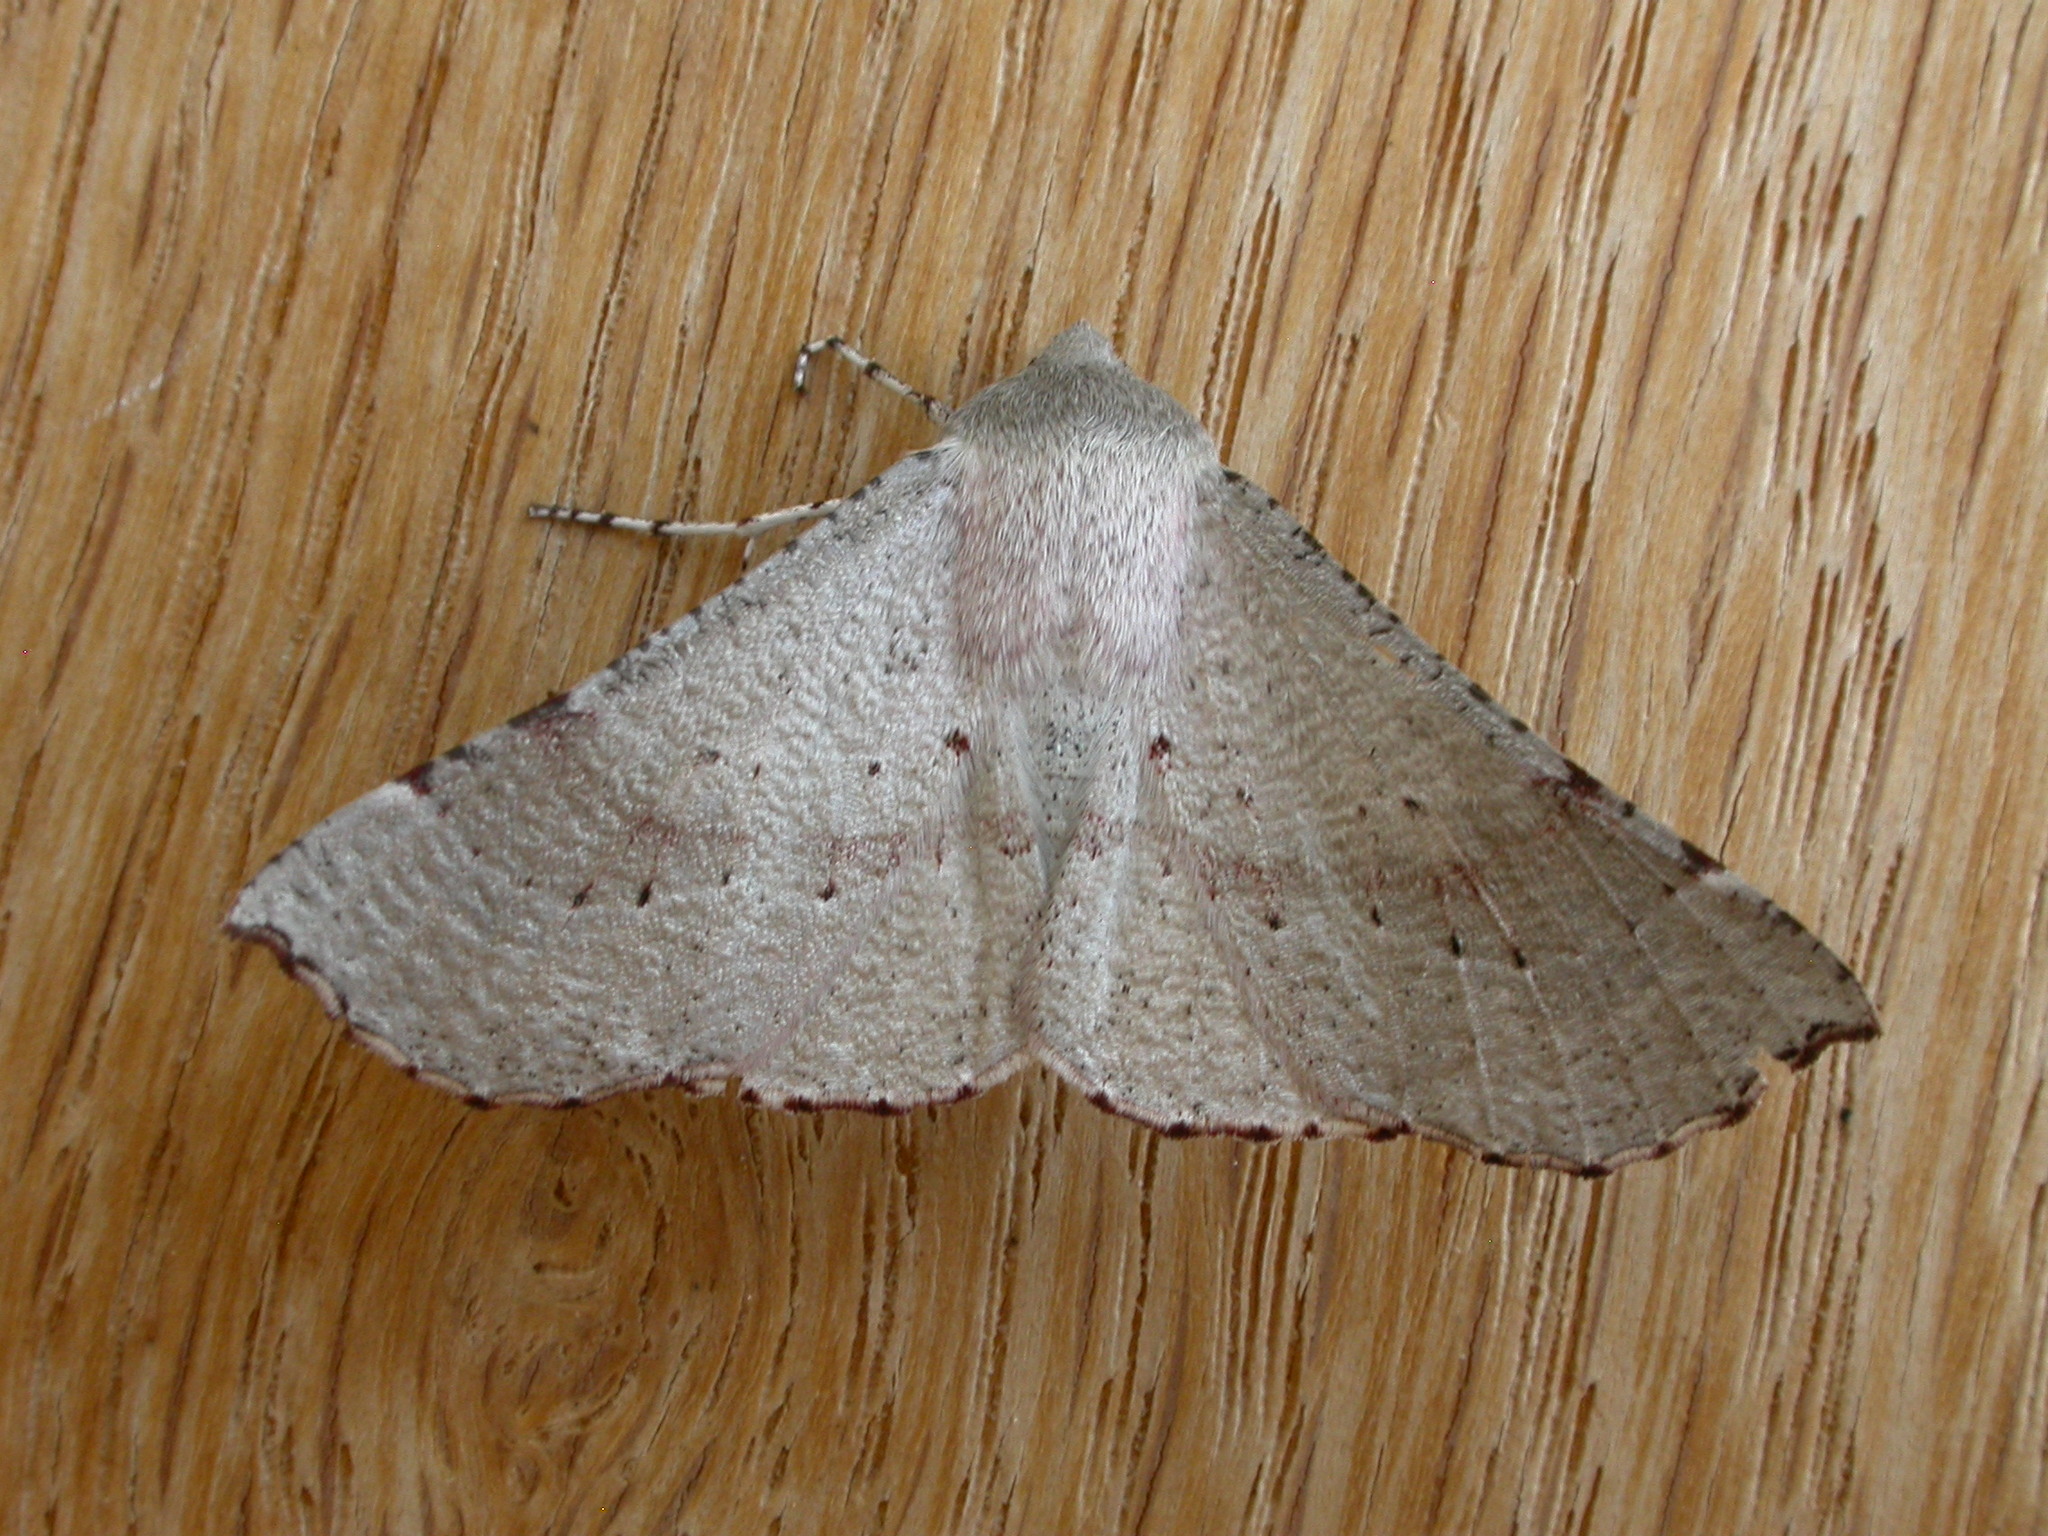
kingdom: Animalia
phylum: Arthropoda
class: Insecta
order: Lepidoptera
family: Geometridae
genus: Oenochroma
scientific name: Oenochroma privata
